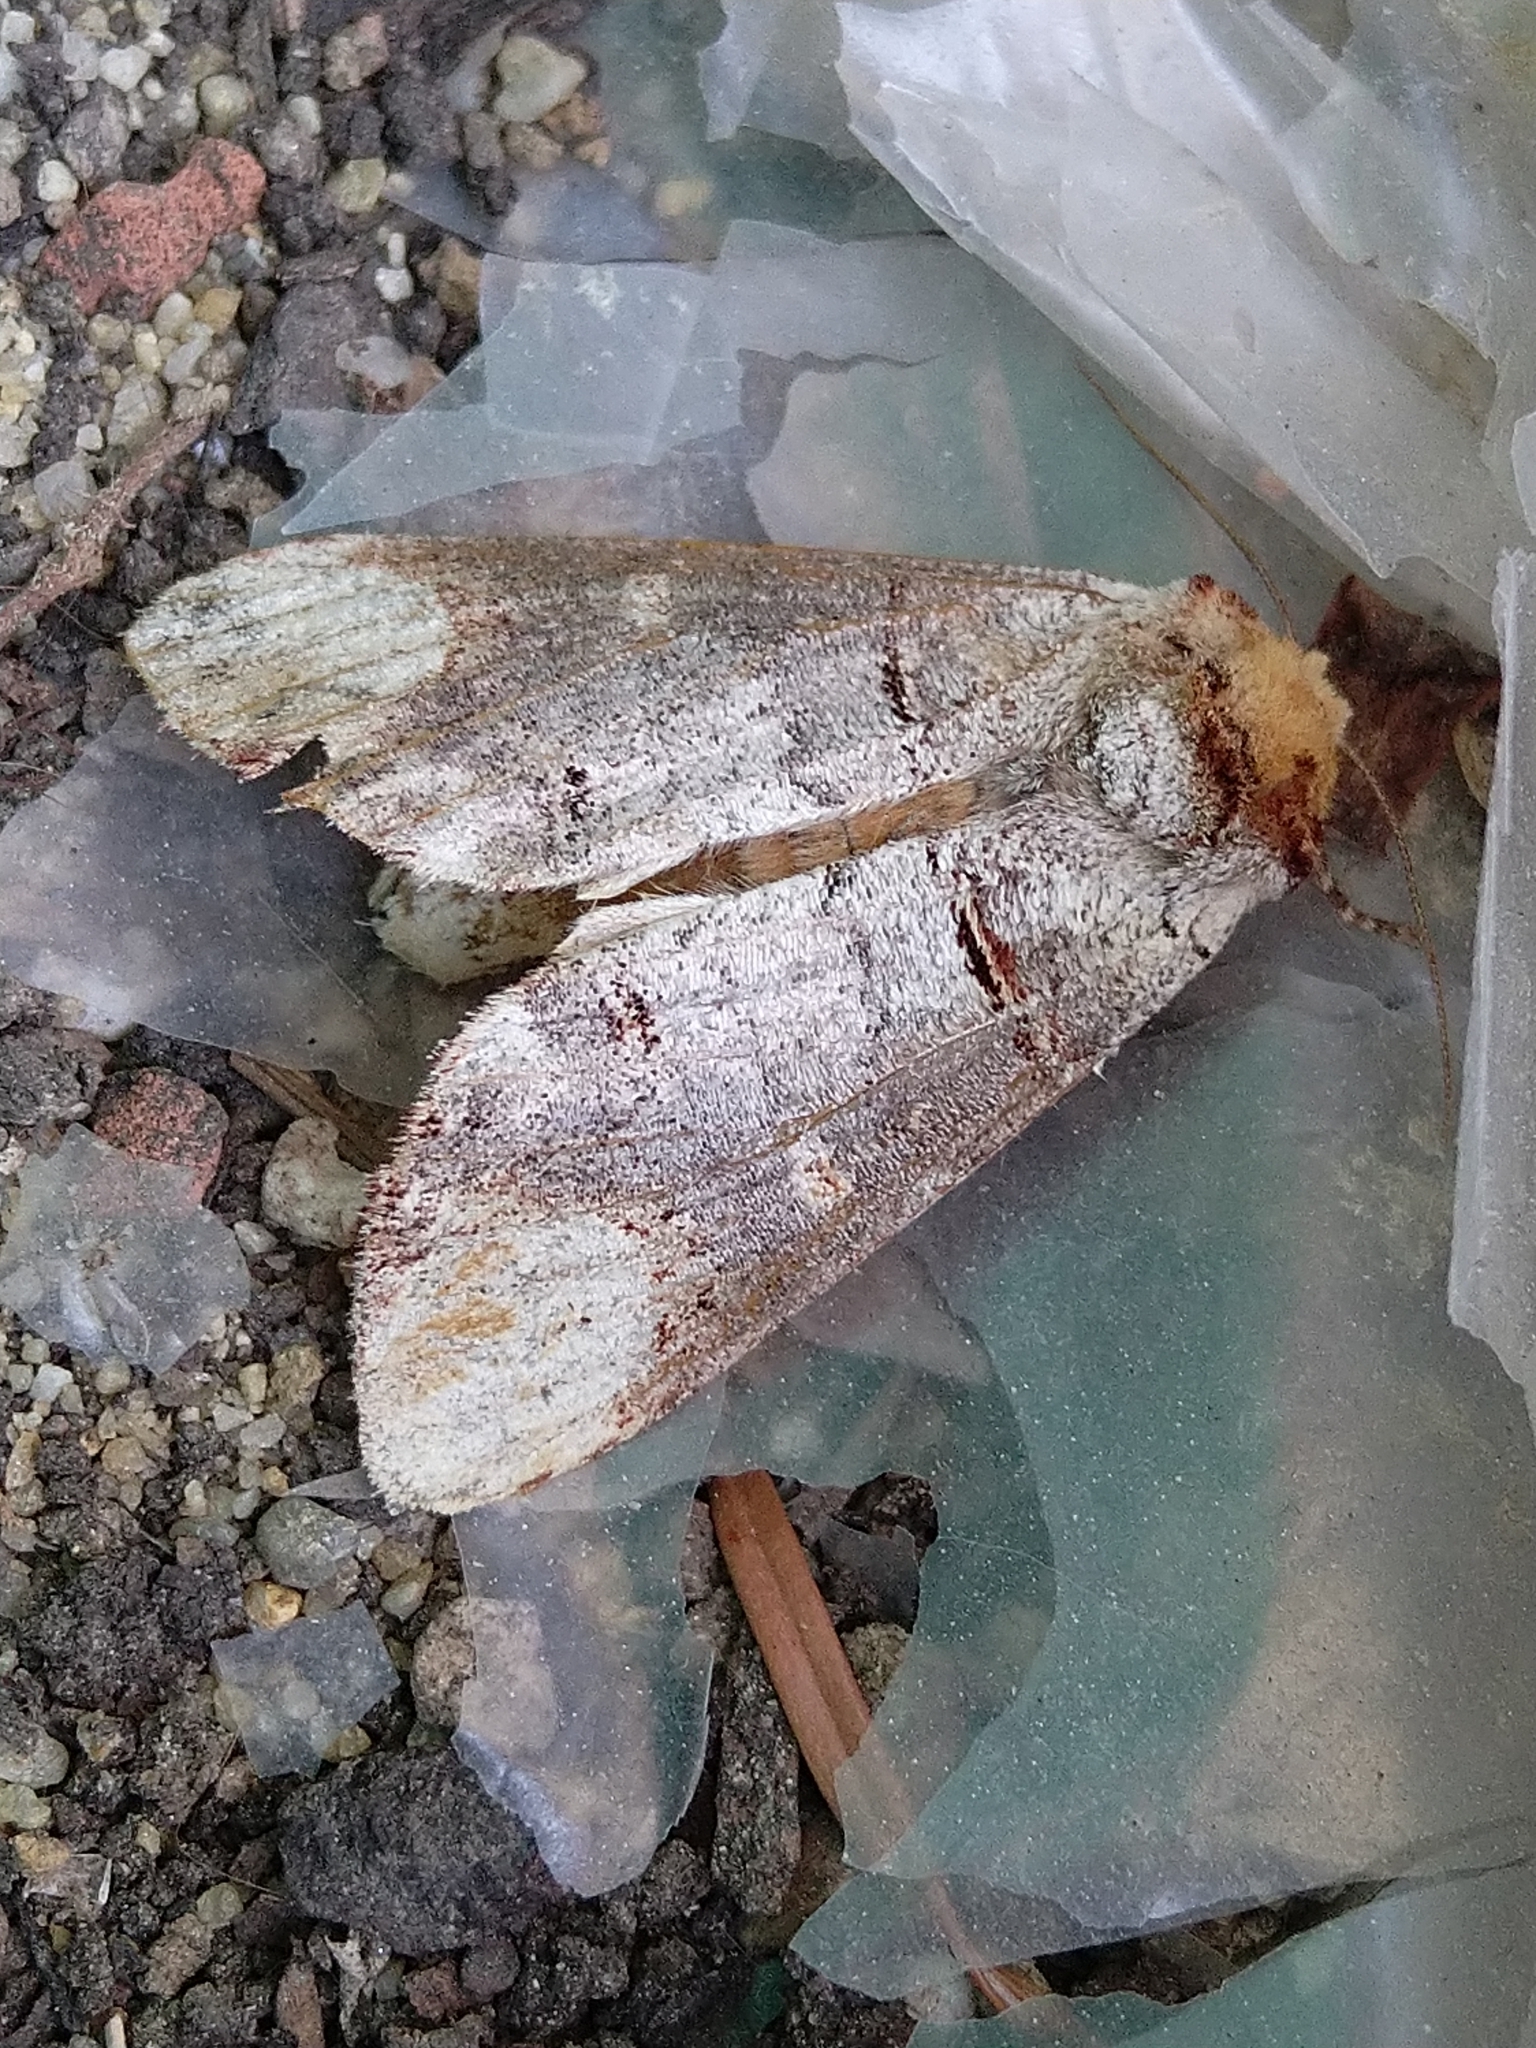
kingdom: Animalia
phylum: Arthropoda
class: Insecta
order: Lepidoptera
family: Notodontidae
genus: Phalera
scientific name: Phalera bucephala
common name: Buff-tip
